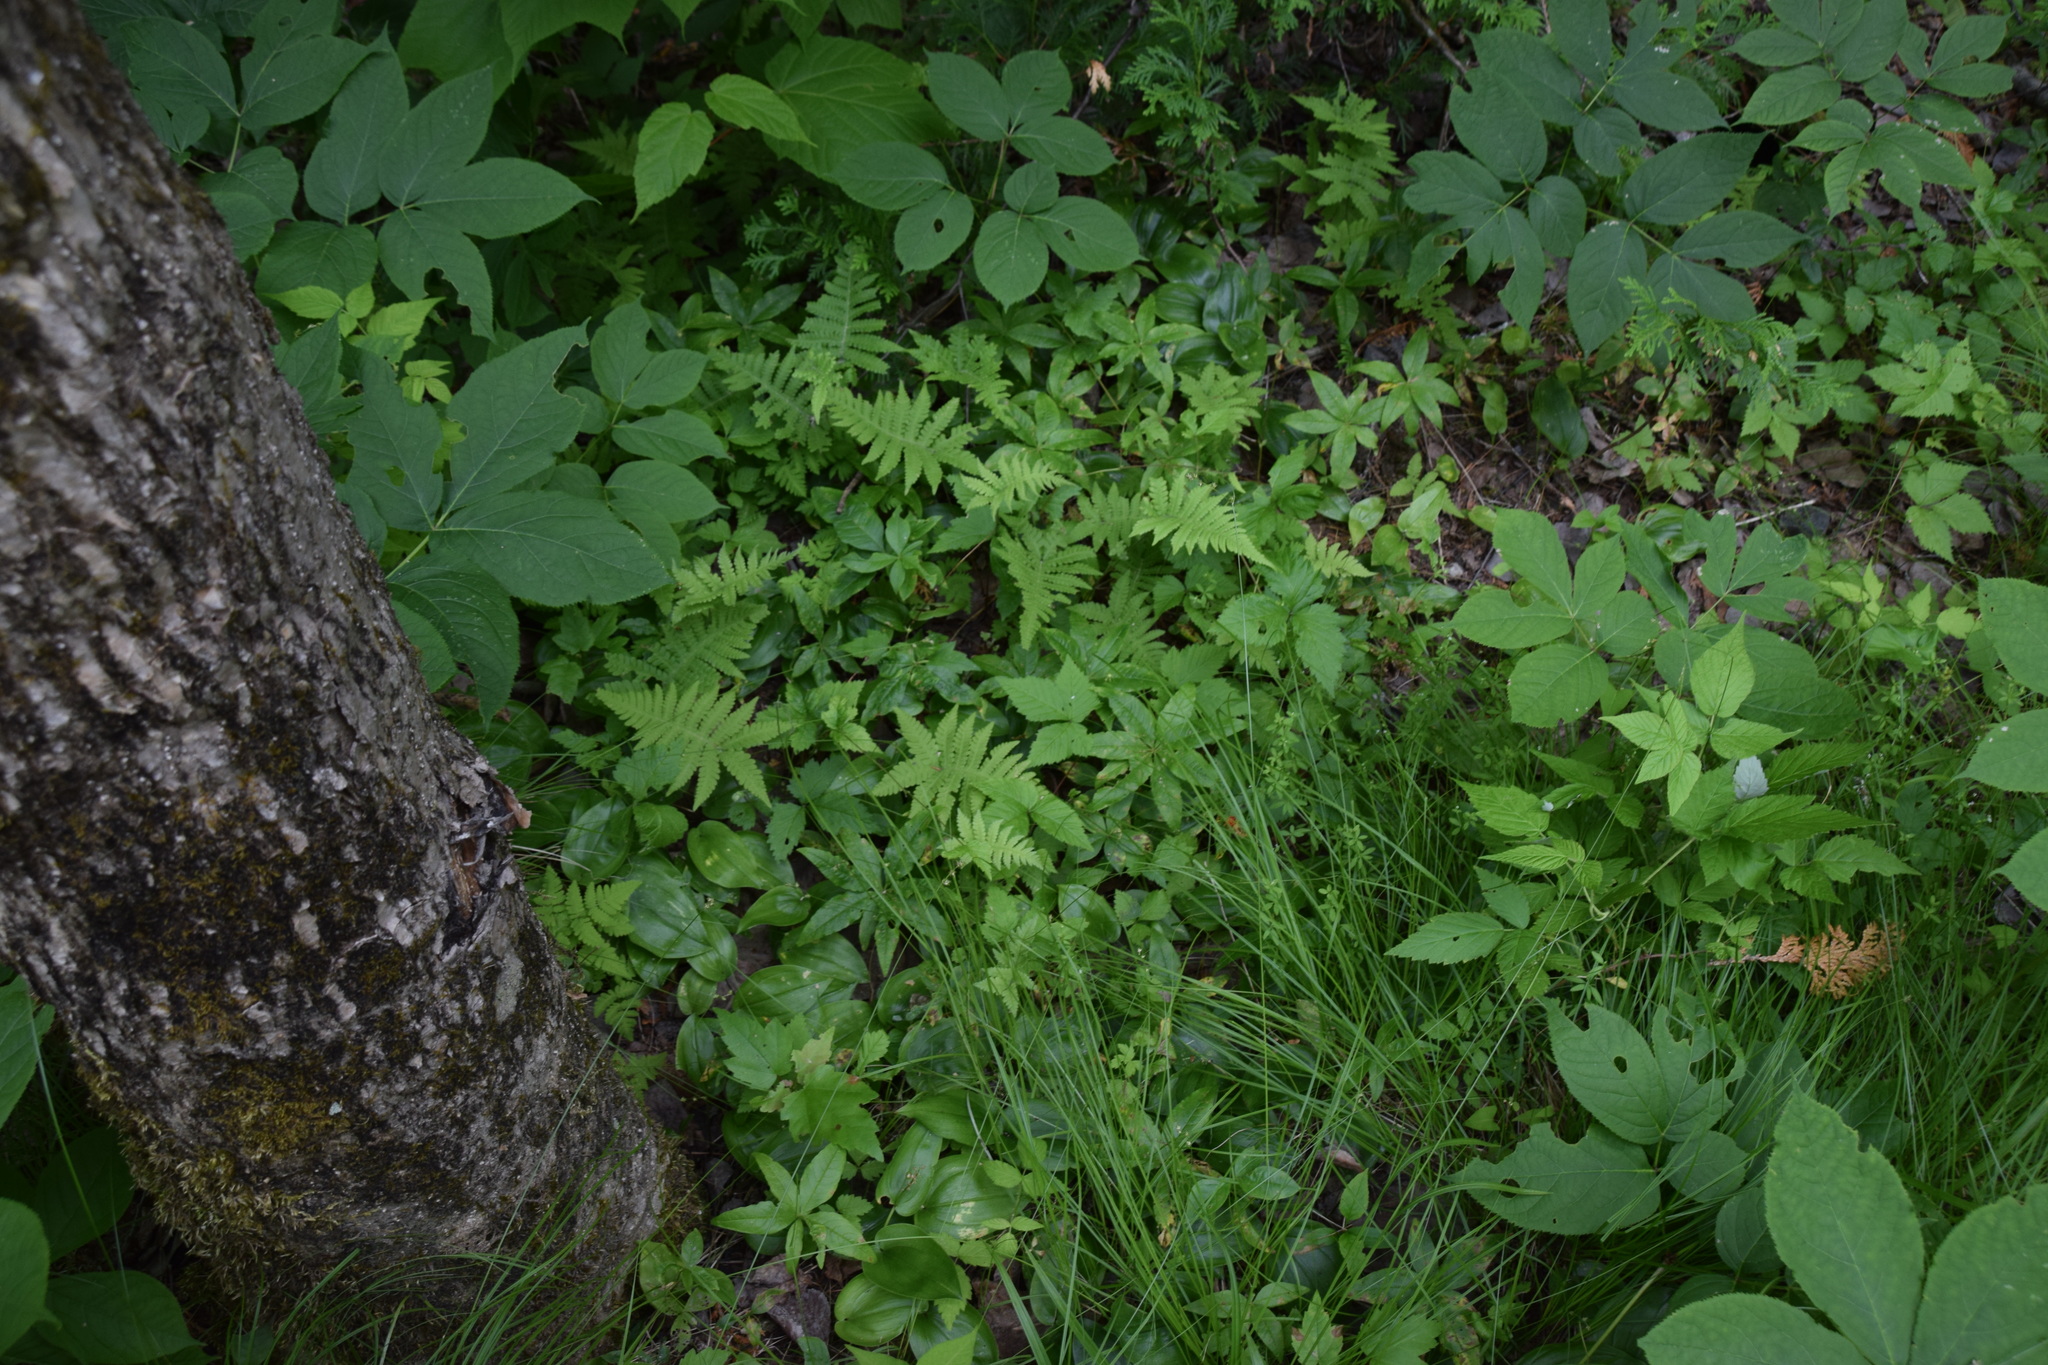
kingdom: Plantae
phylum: Tracheophyta
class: Polypodiopsida
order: Polypodiales
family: Thelypteridaceae
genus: Phegopteris
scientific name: Phegopteris connectilis
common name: Beech fern
